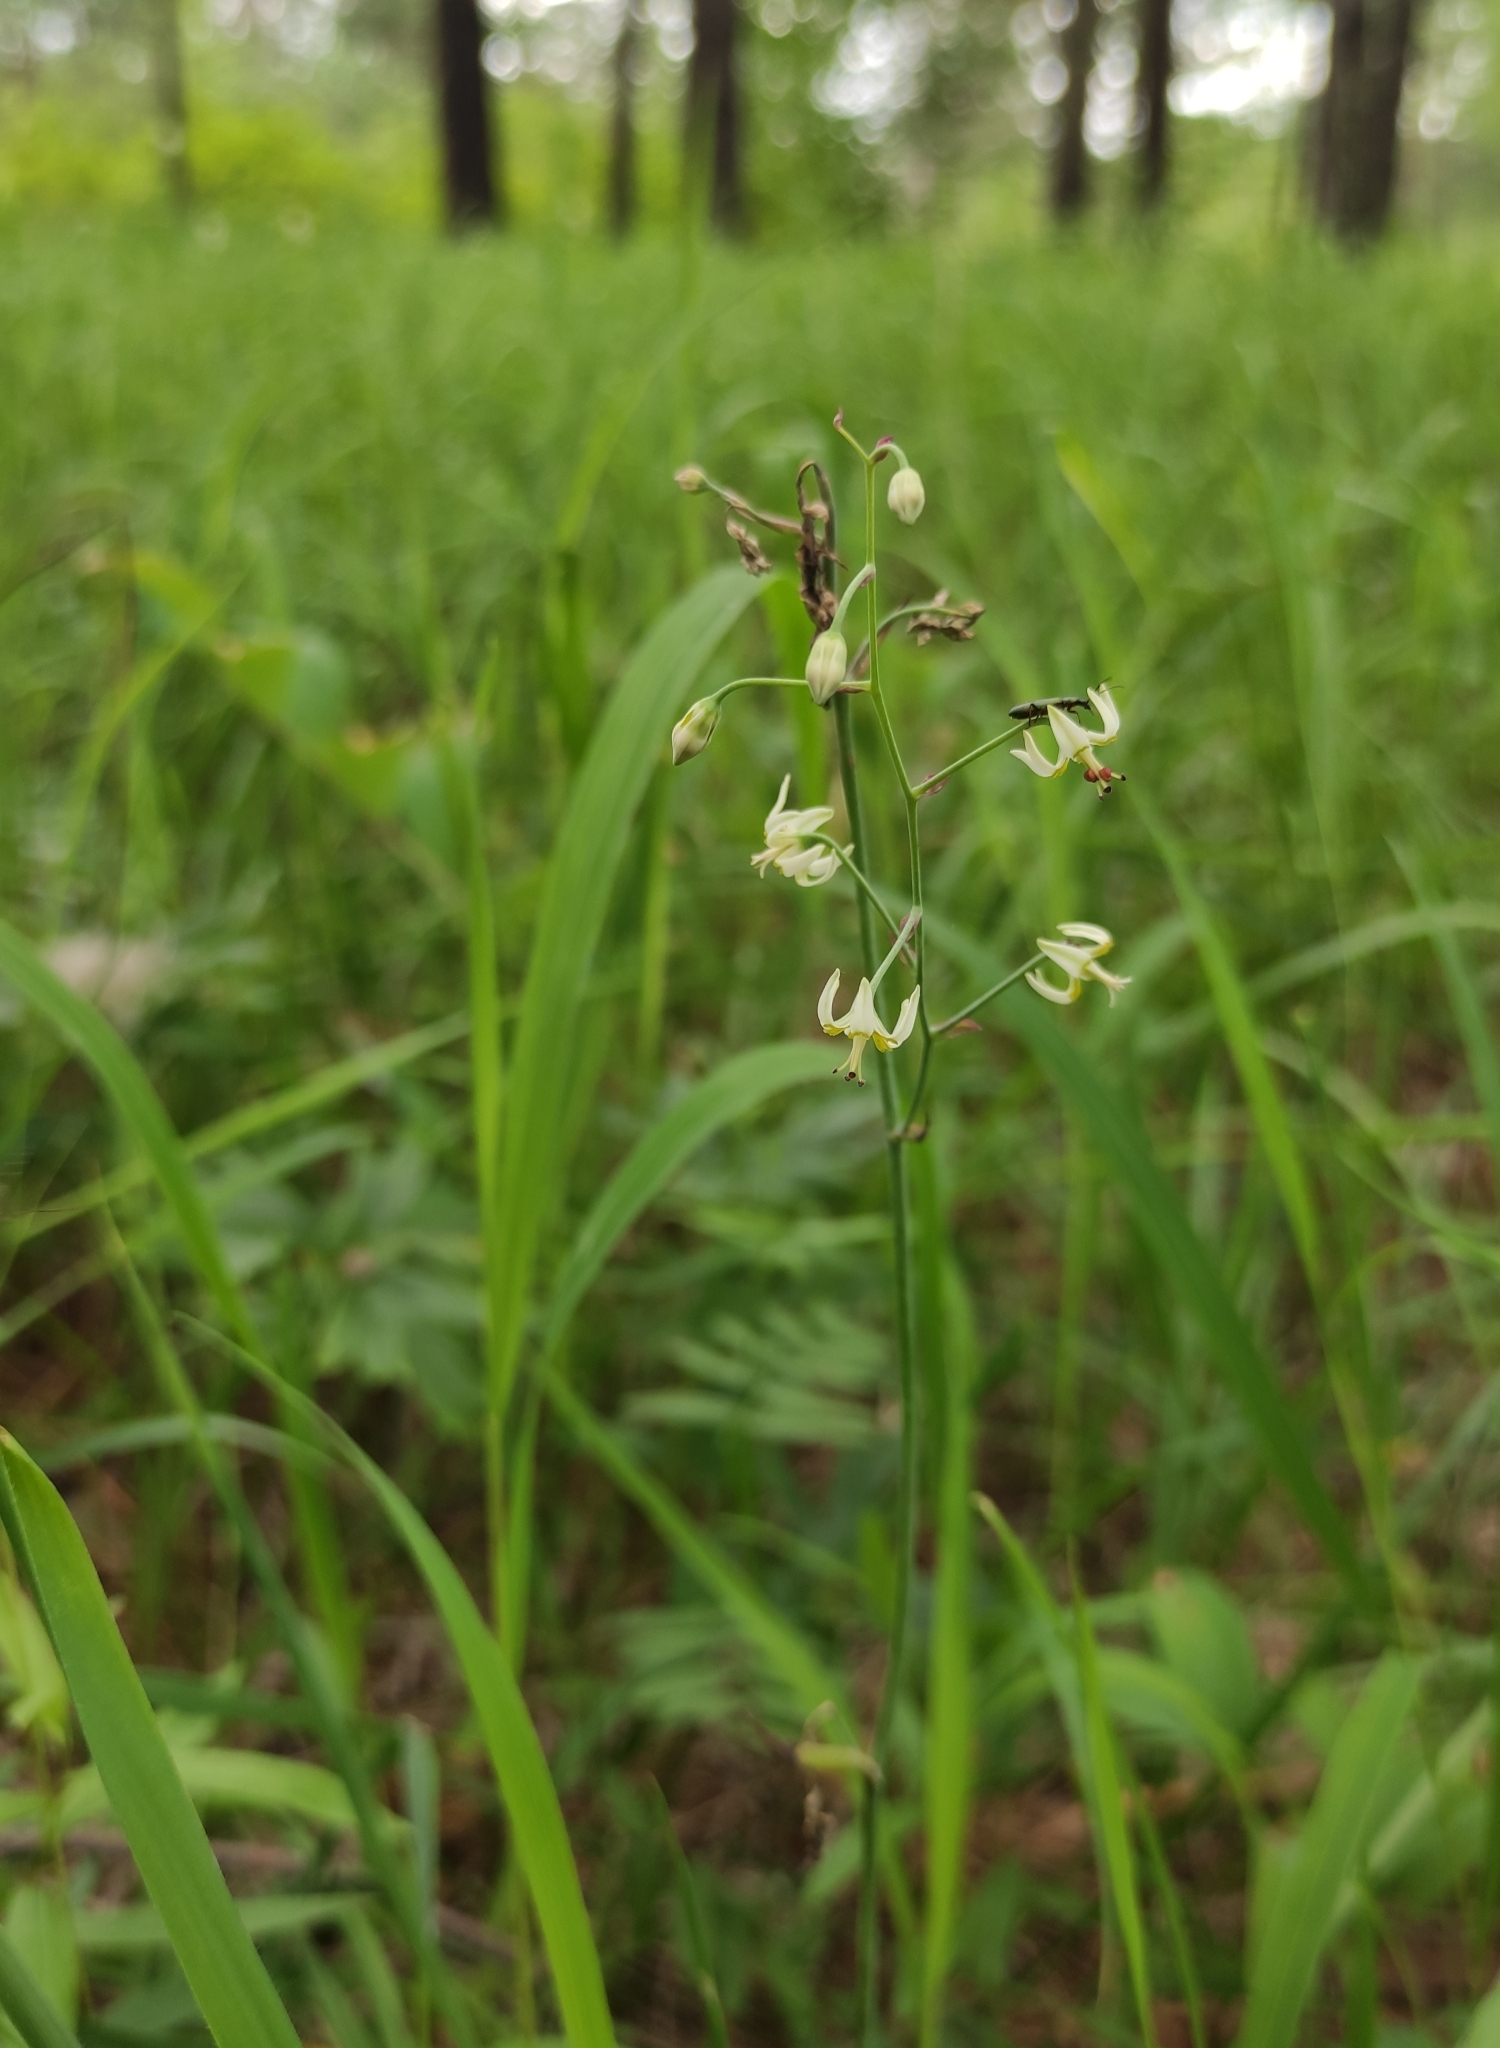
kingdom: Plantae
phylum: Tracheophyta
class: Liliopsida
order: Liliales
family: Melanthiaceae
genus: Anticlea
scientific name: Anticlea sibirica
